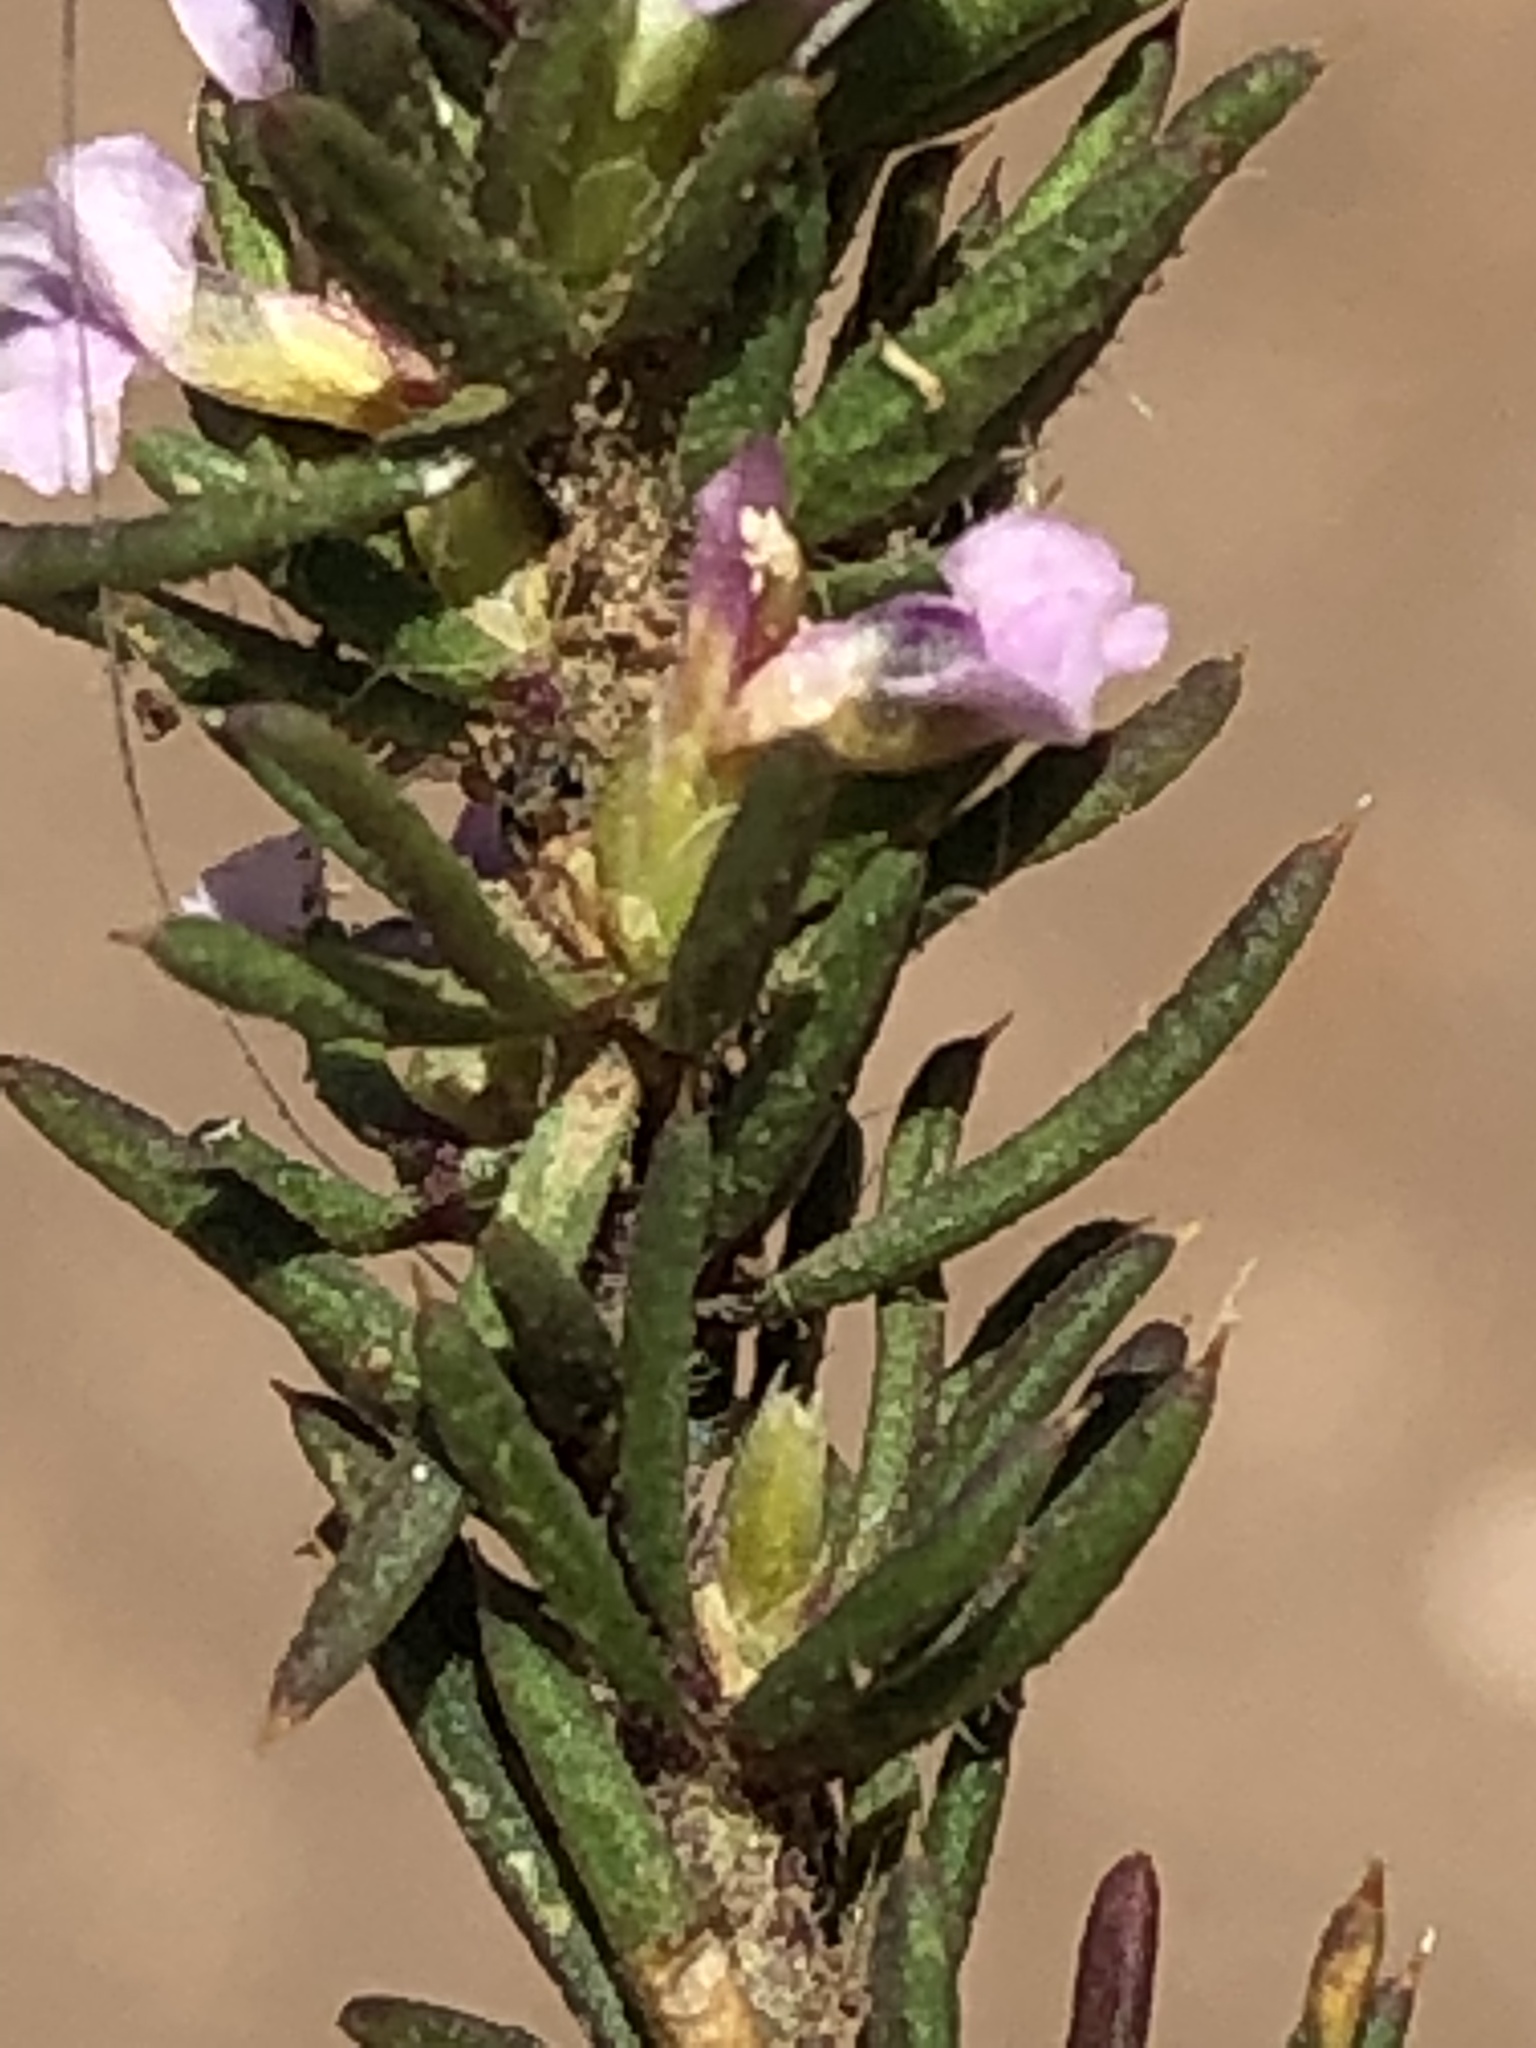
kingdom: Plantae
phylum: Tracheophyta
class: Magnoliopsida
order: Fabales
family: Polygalaceae
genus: Muraltia
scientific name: Muraltia alticola
